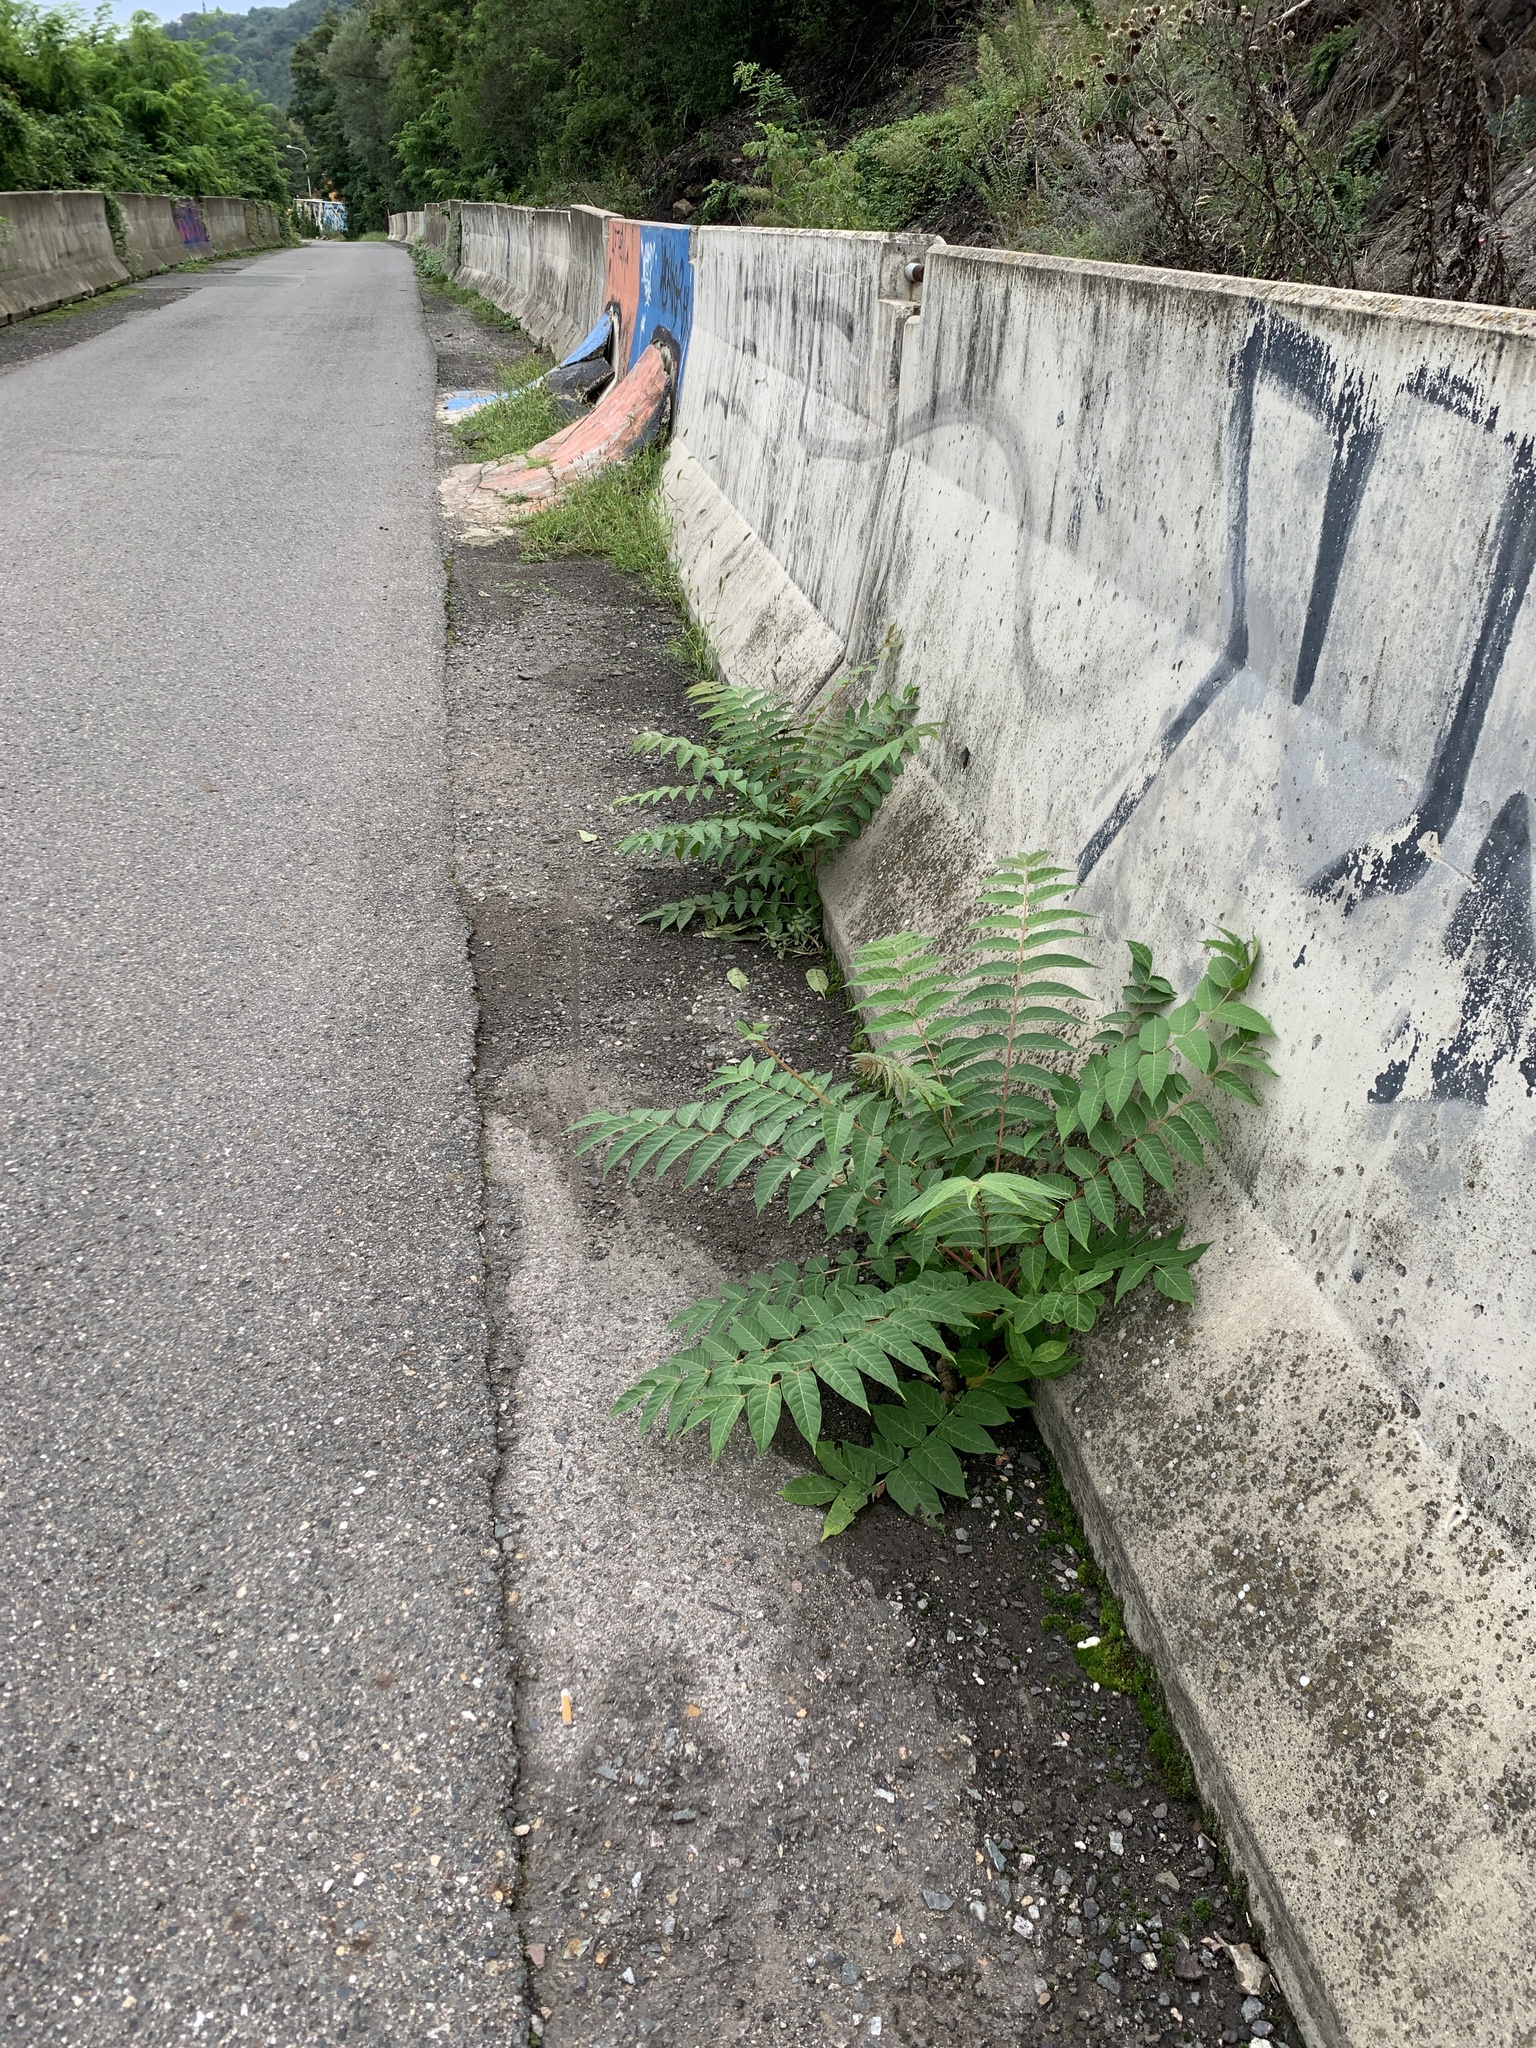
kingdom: Plantae
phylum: Tracheophyta
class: Magnoliopsida
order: Sapindales
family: Simaroubaceae
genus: Ailanthus
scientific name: Ailanthus altissima
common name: Tree-of-heaven
